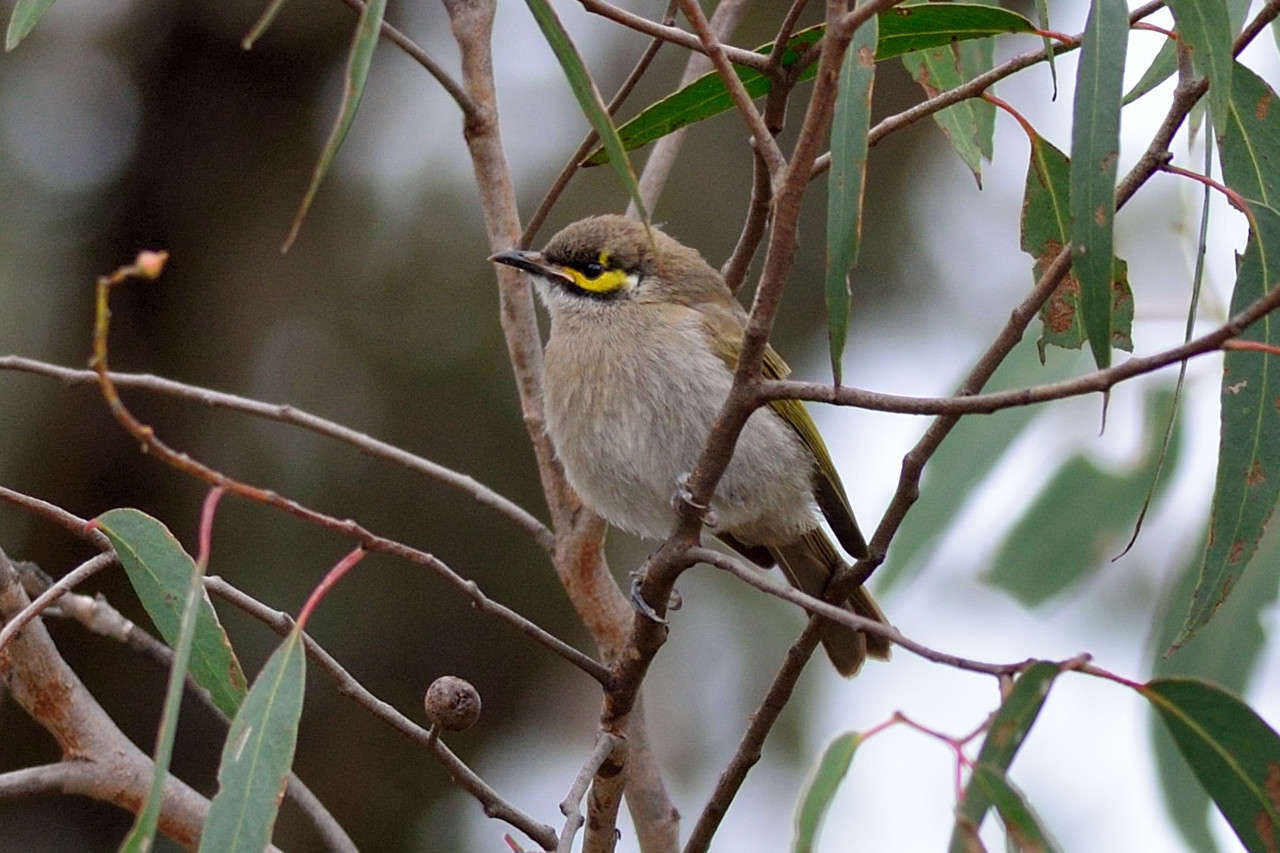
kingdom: Animalia
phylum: Chordata
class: Aves
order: Passeriformes
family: Meliphagidae
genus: Caligavis
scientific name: Caligavis chrysops
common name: Yellow-faced honeyeater
